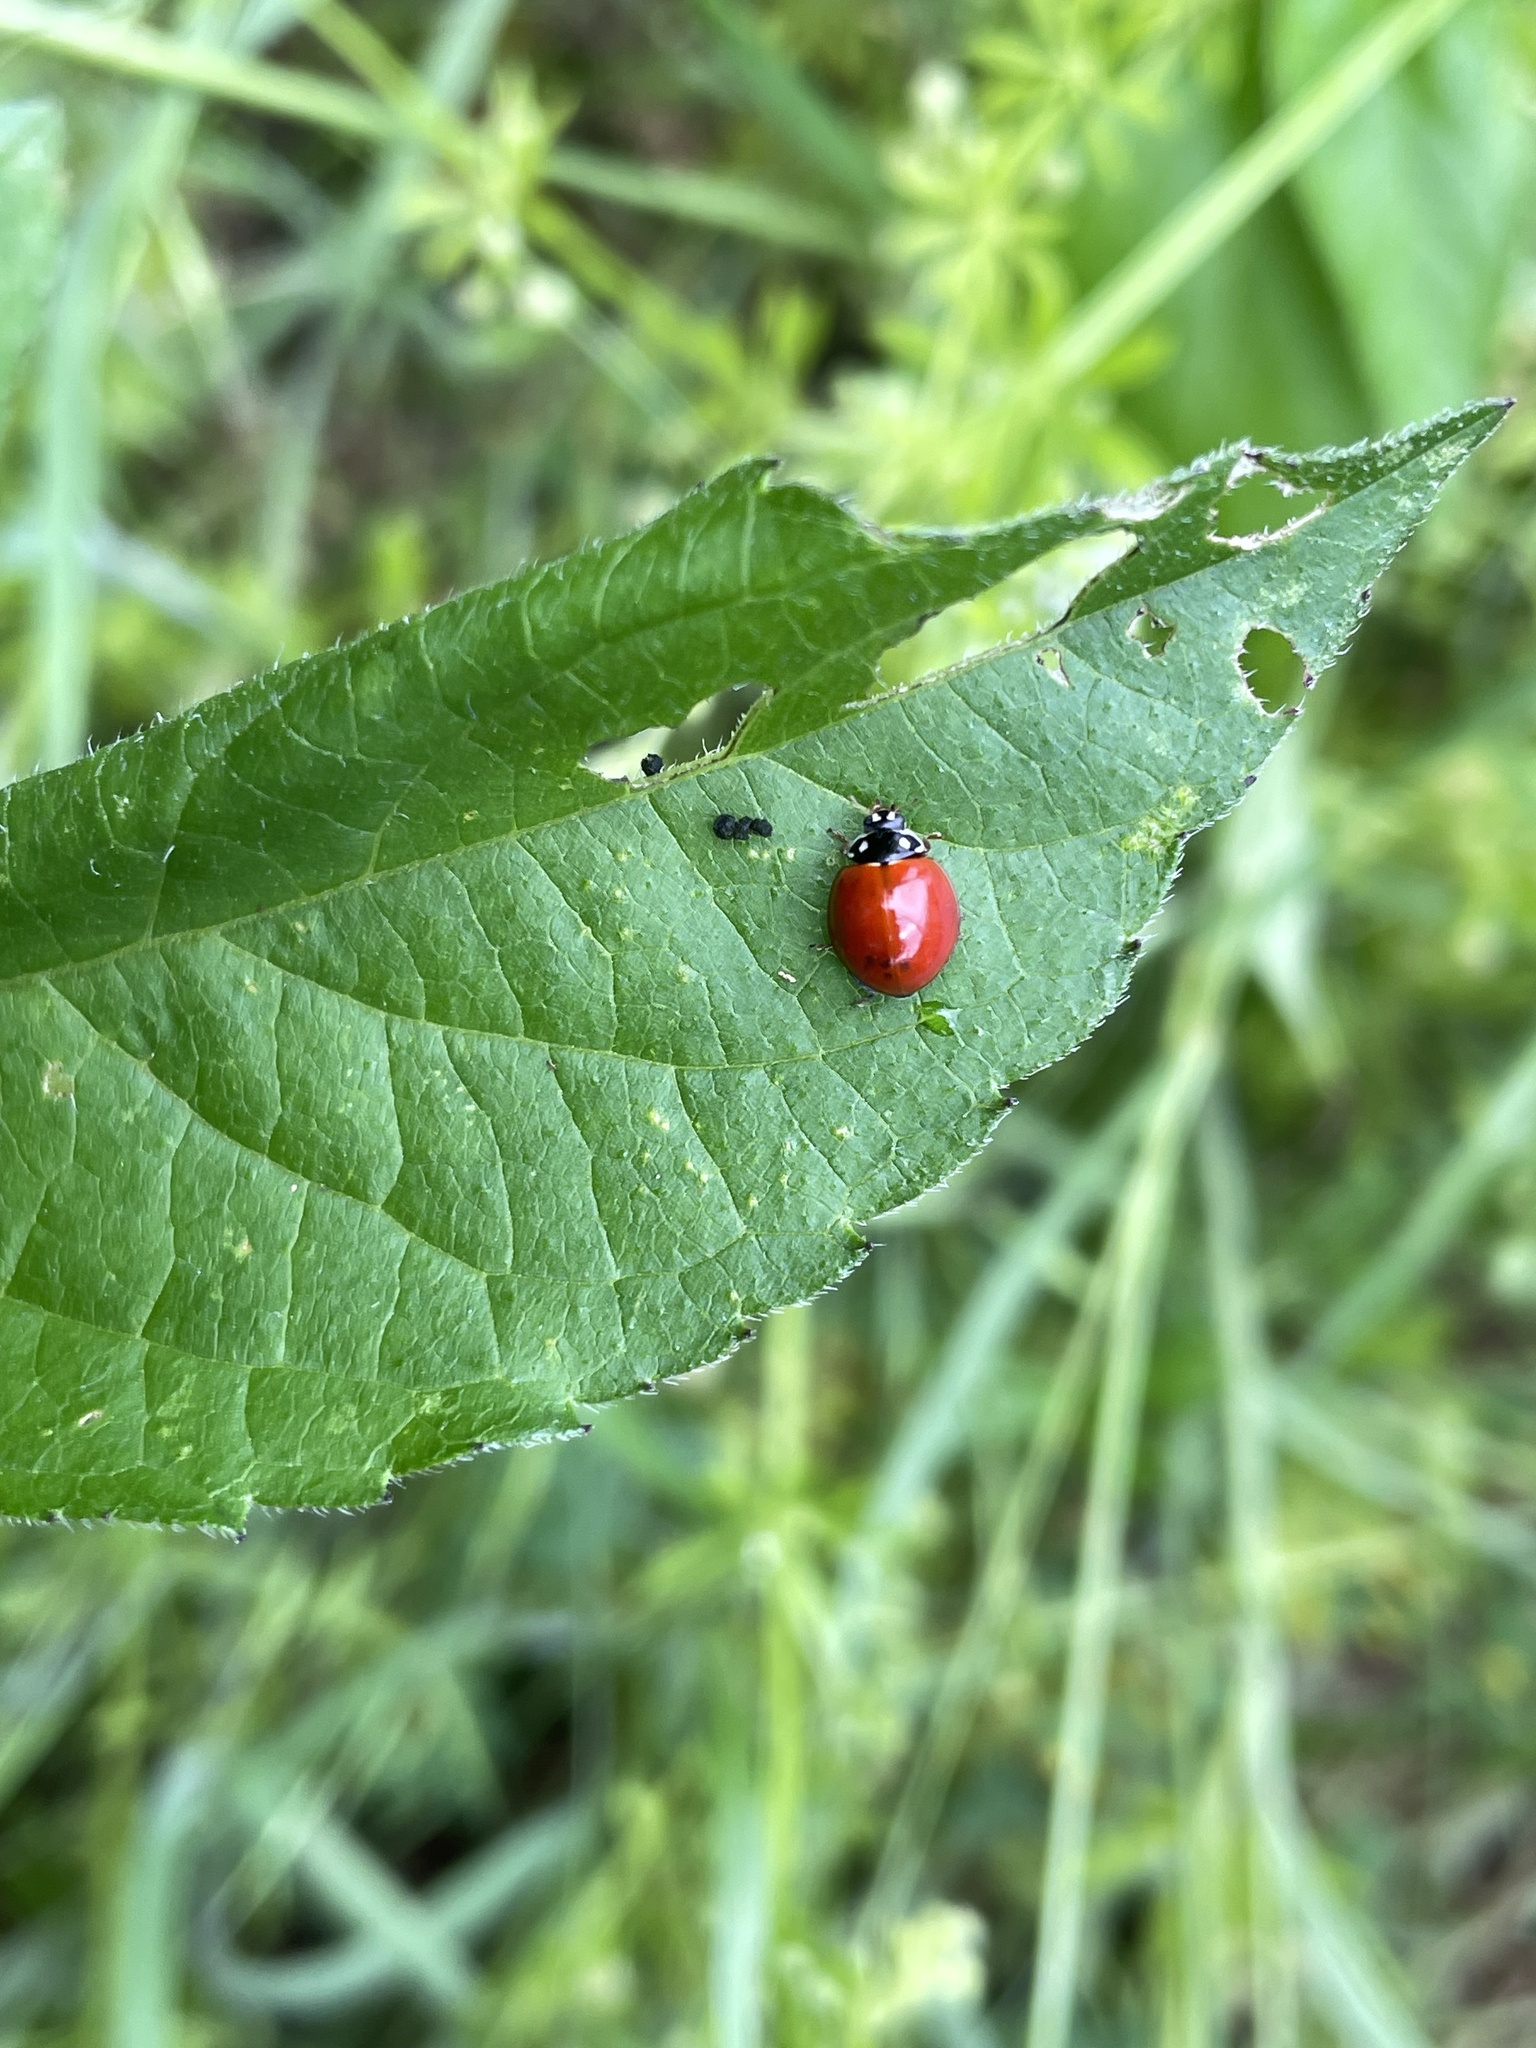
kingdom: Animalia
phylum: Arthropoda
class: Insecta
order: Coleoptera
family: Coccinellidae
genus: Cycloneda
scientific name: Cycloneda sanguinea
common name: Ladybird beetle
